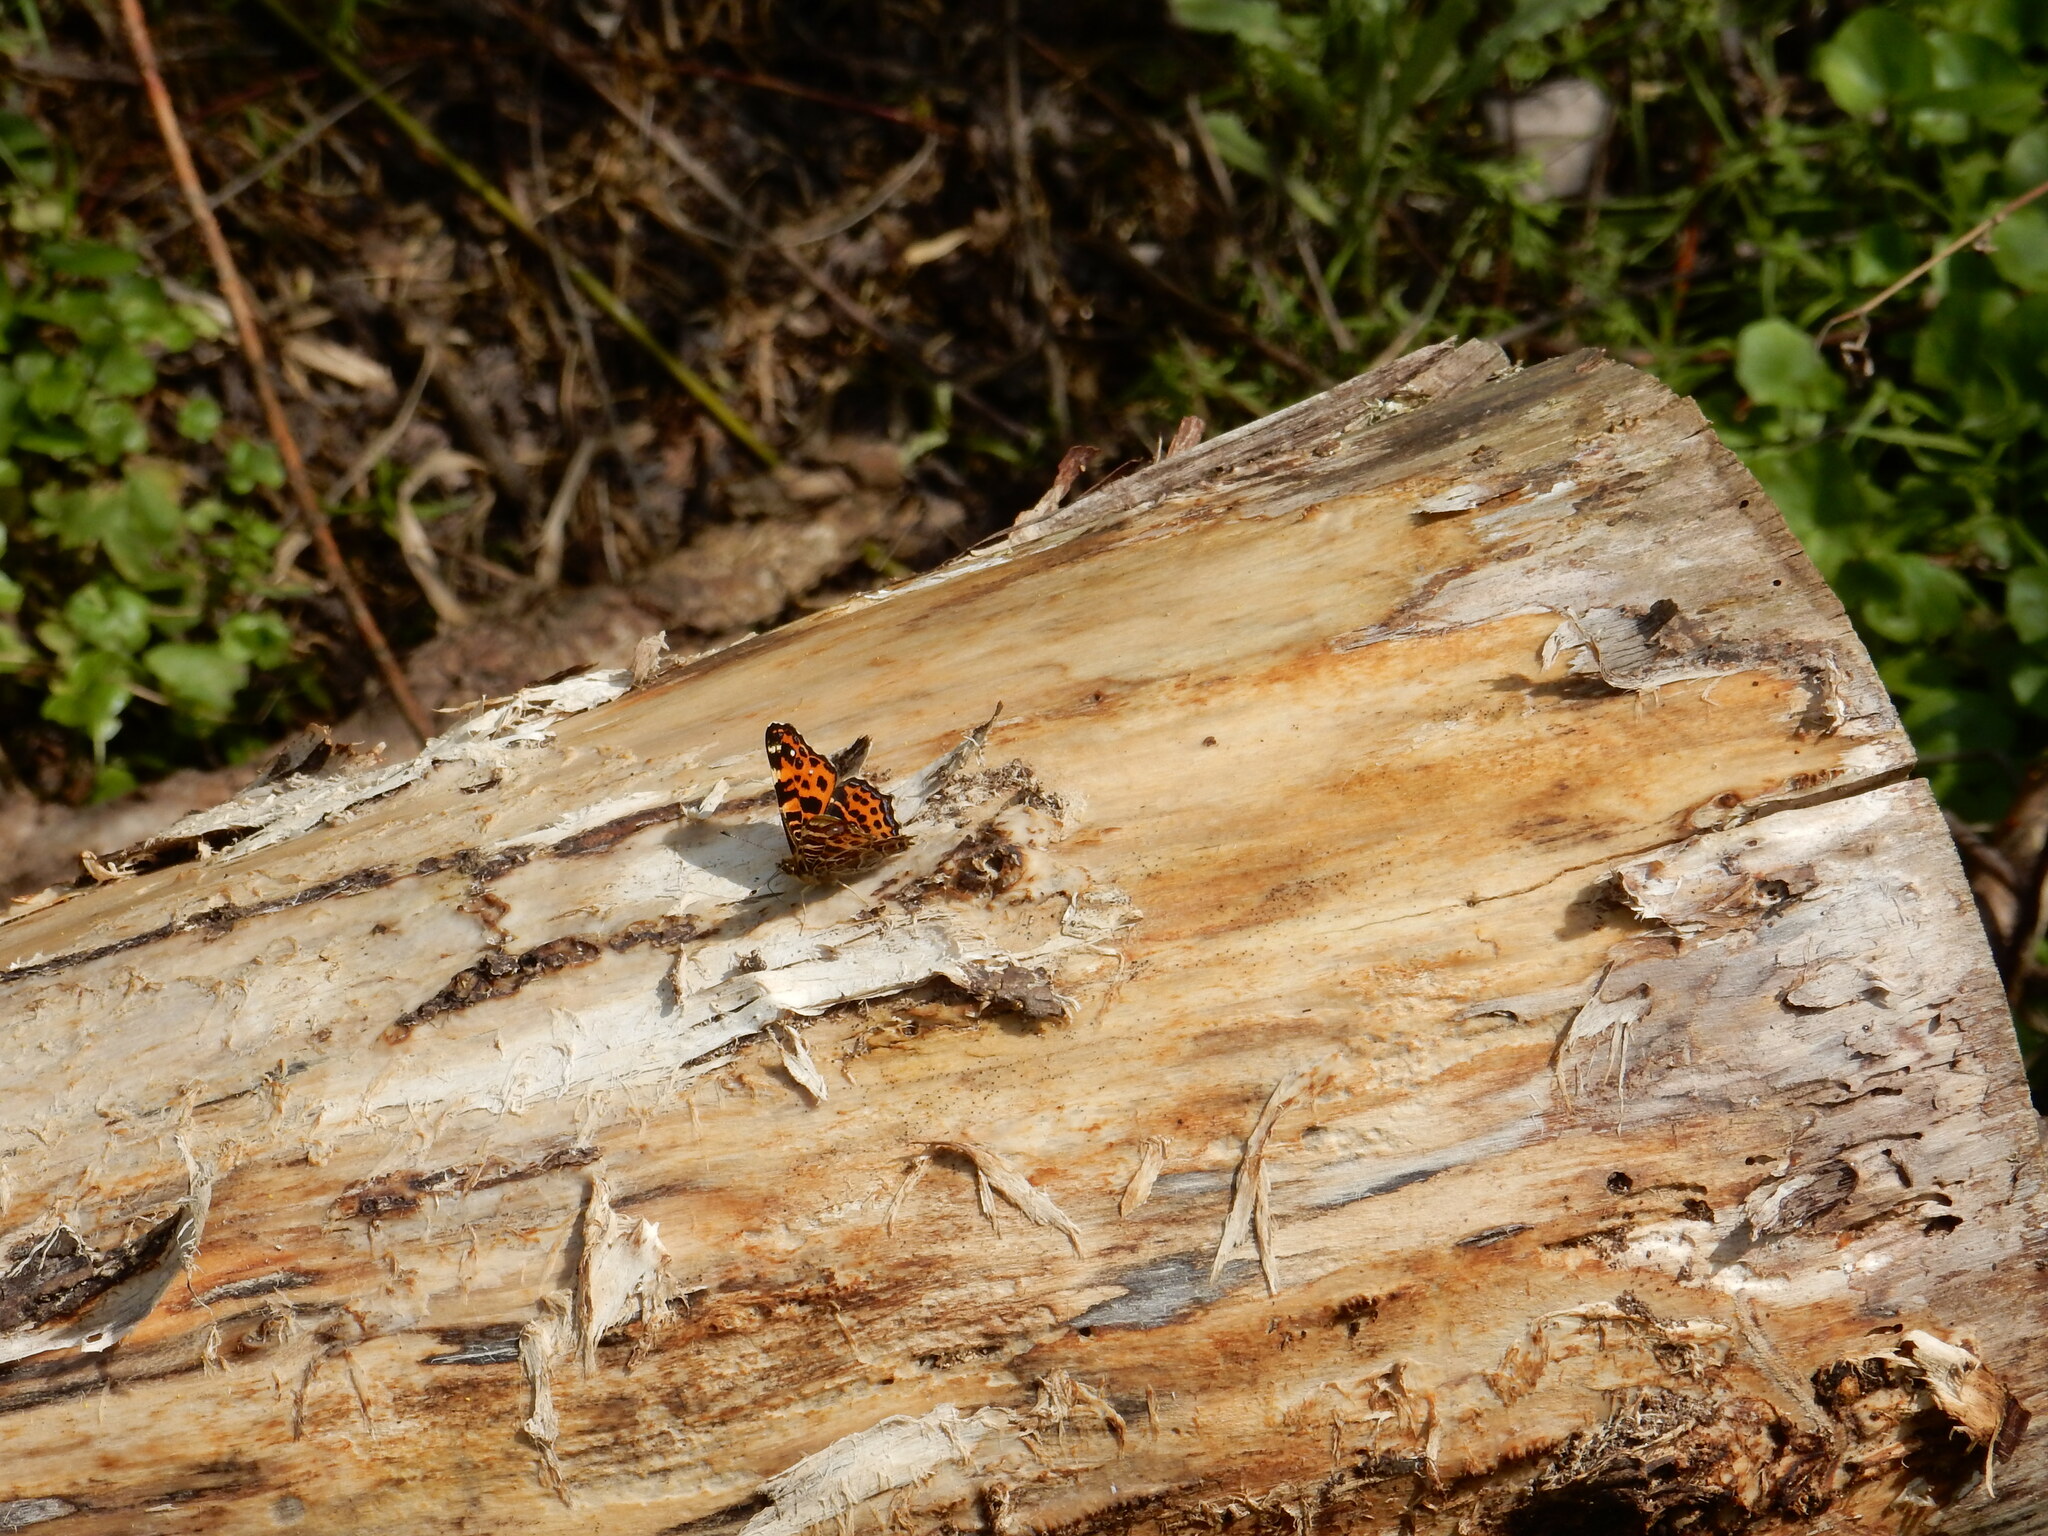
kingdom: Animalia
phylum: Arthropoda
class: Insecta
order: Lepidoptera
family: Nymphalidae
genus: Araschnia
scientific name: Araschnia levana
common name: Map butterfly
